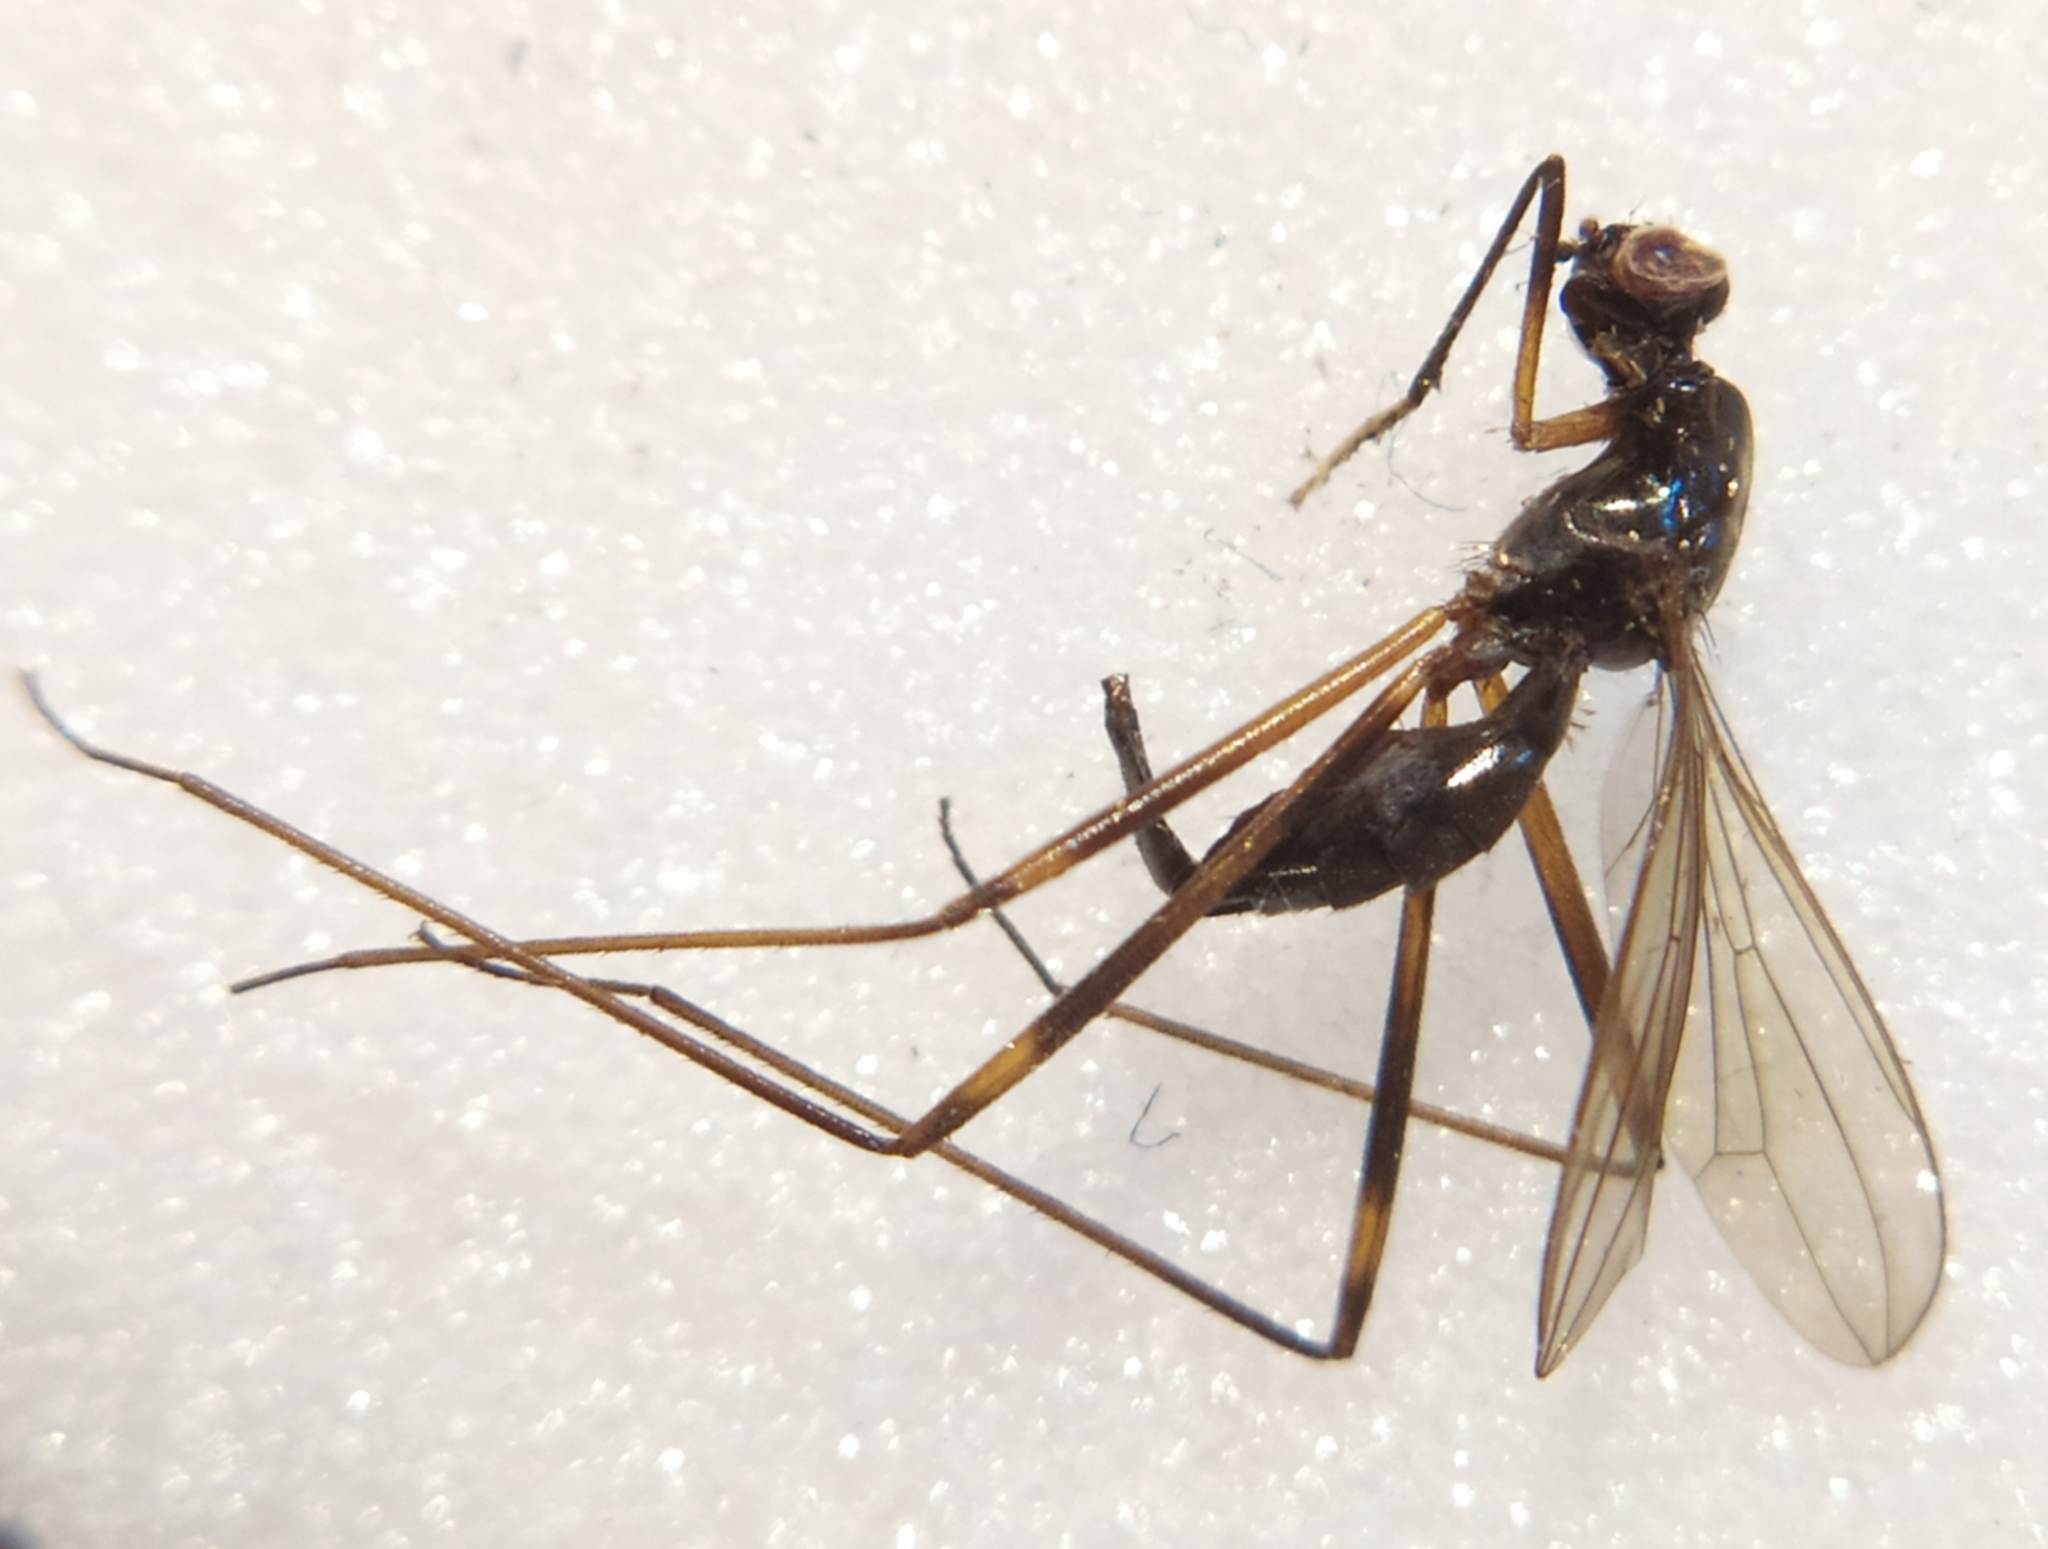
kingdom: Animalia
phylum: Arthropoda
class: Insecta
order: Diptera
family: Micropezidae
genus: Rainieria
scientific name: Rainieria latifrons
